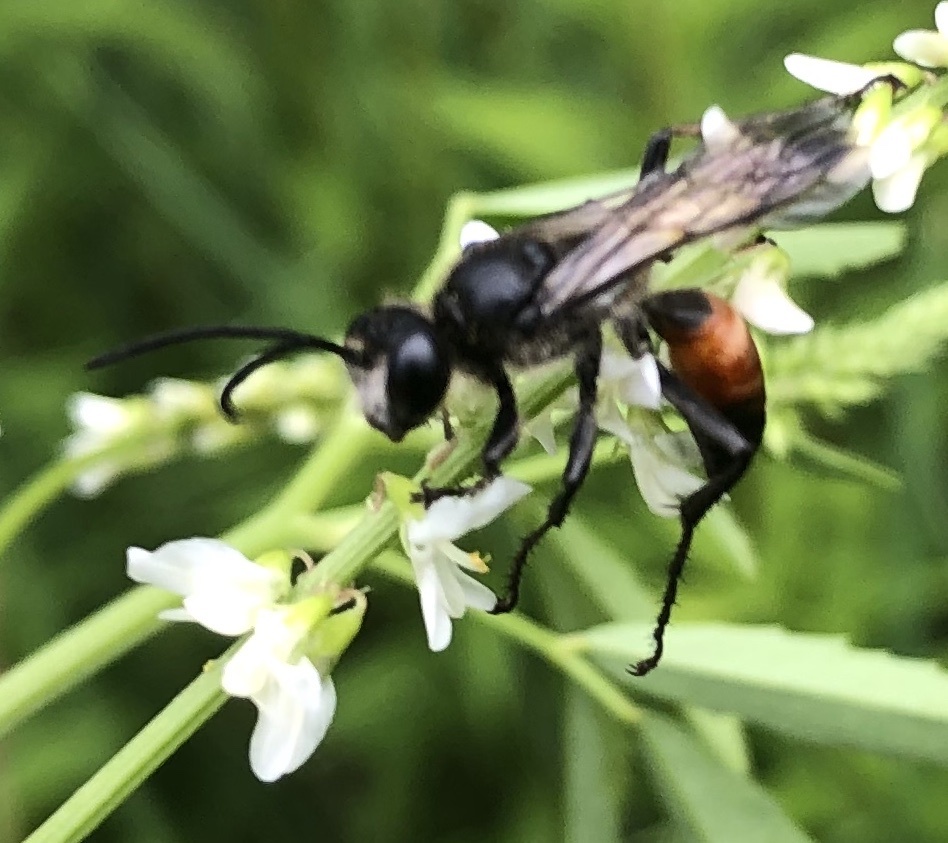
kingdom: Animalia
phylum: Arthropoda
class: Insecta
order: Hymenoptera
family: Sphecidae
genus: Sphex
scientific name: Sphex funerarius
